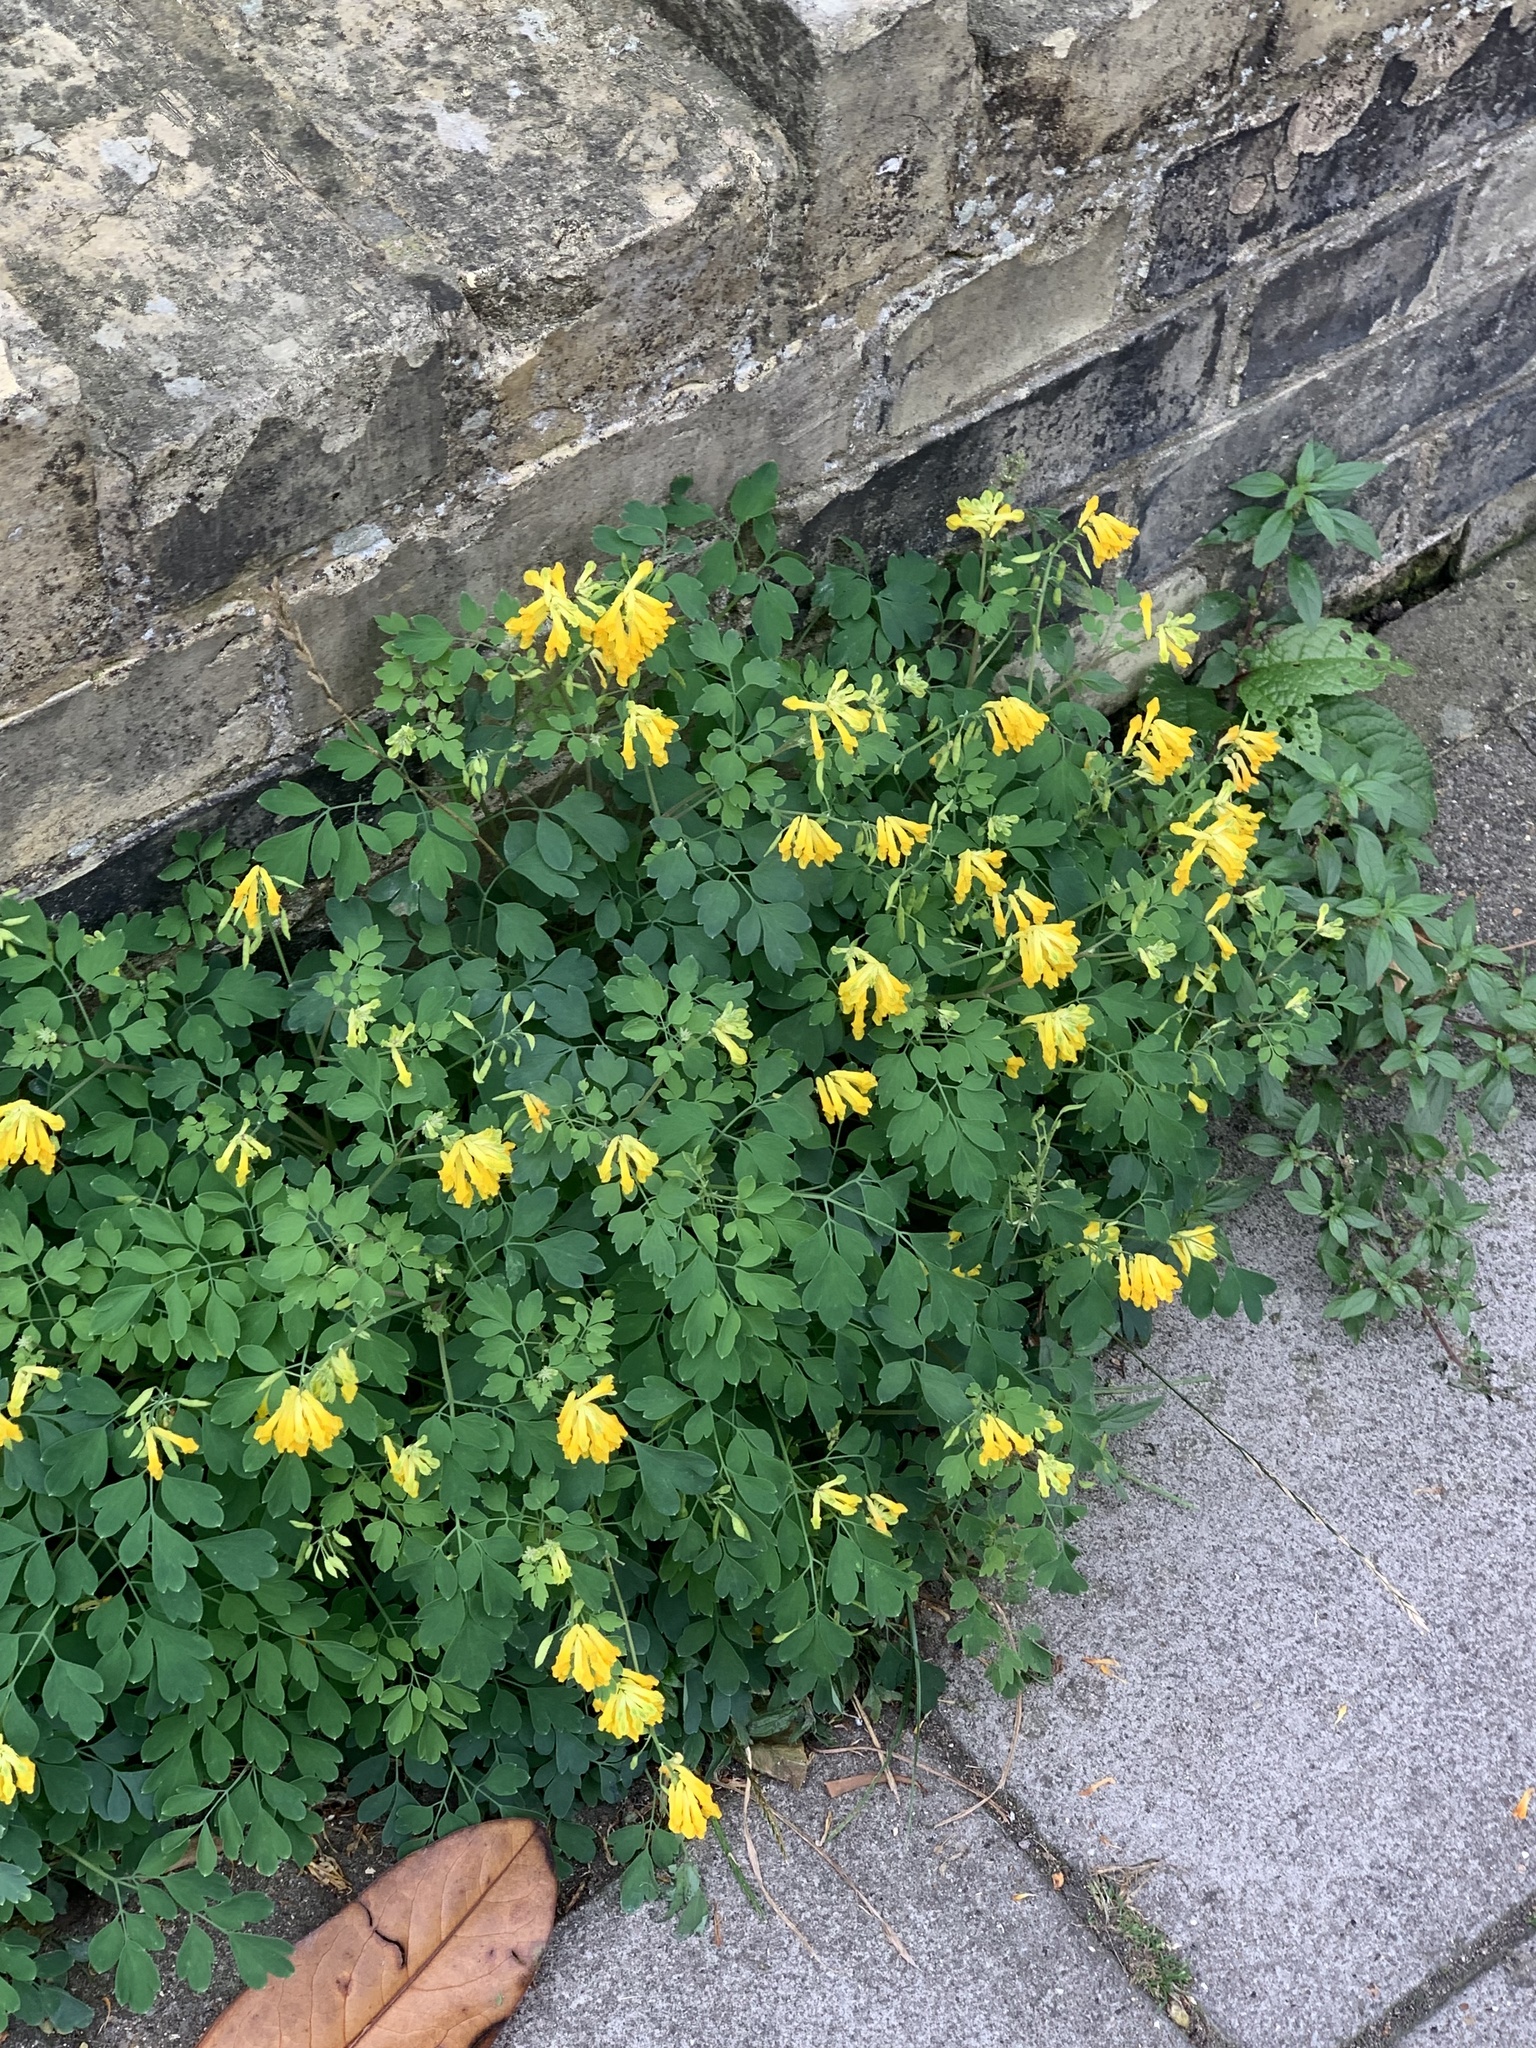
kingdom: Plantae
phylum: Tracheophyta
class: Magnoliopsida
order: Ranunculales
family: Papaveraceae
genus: Pseudofumaria
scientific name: Pseudofumaria lutea
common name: Yellow corydalis
